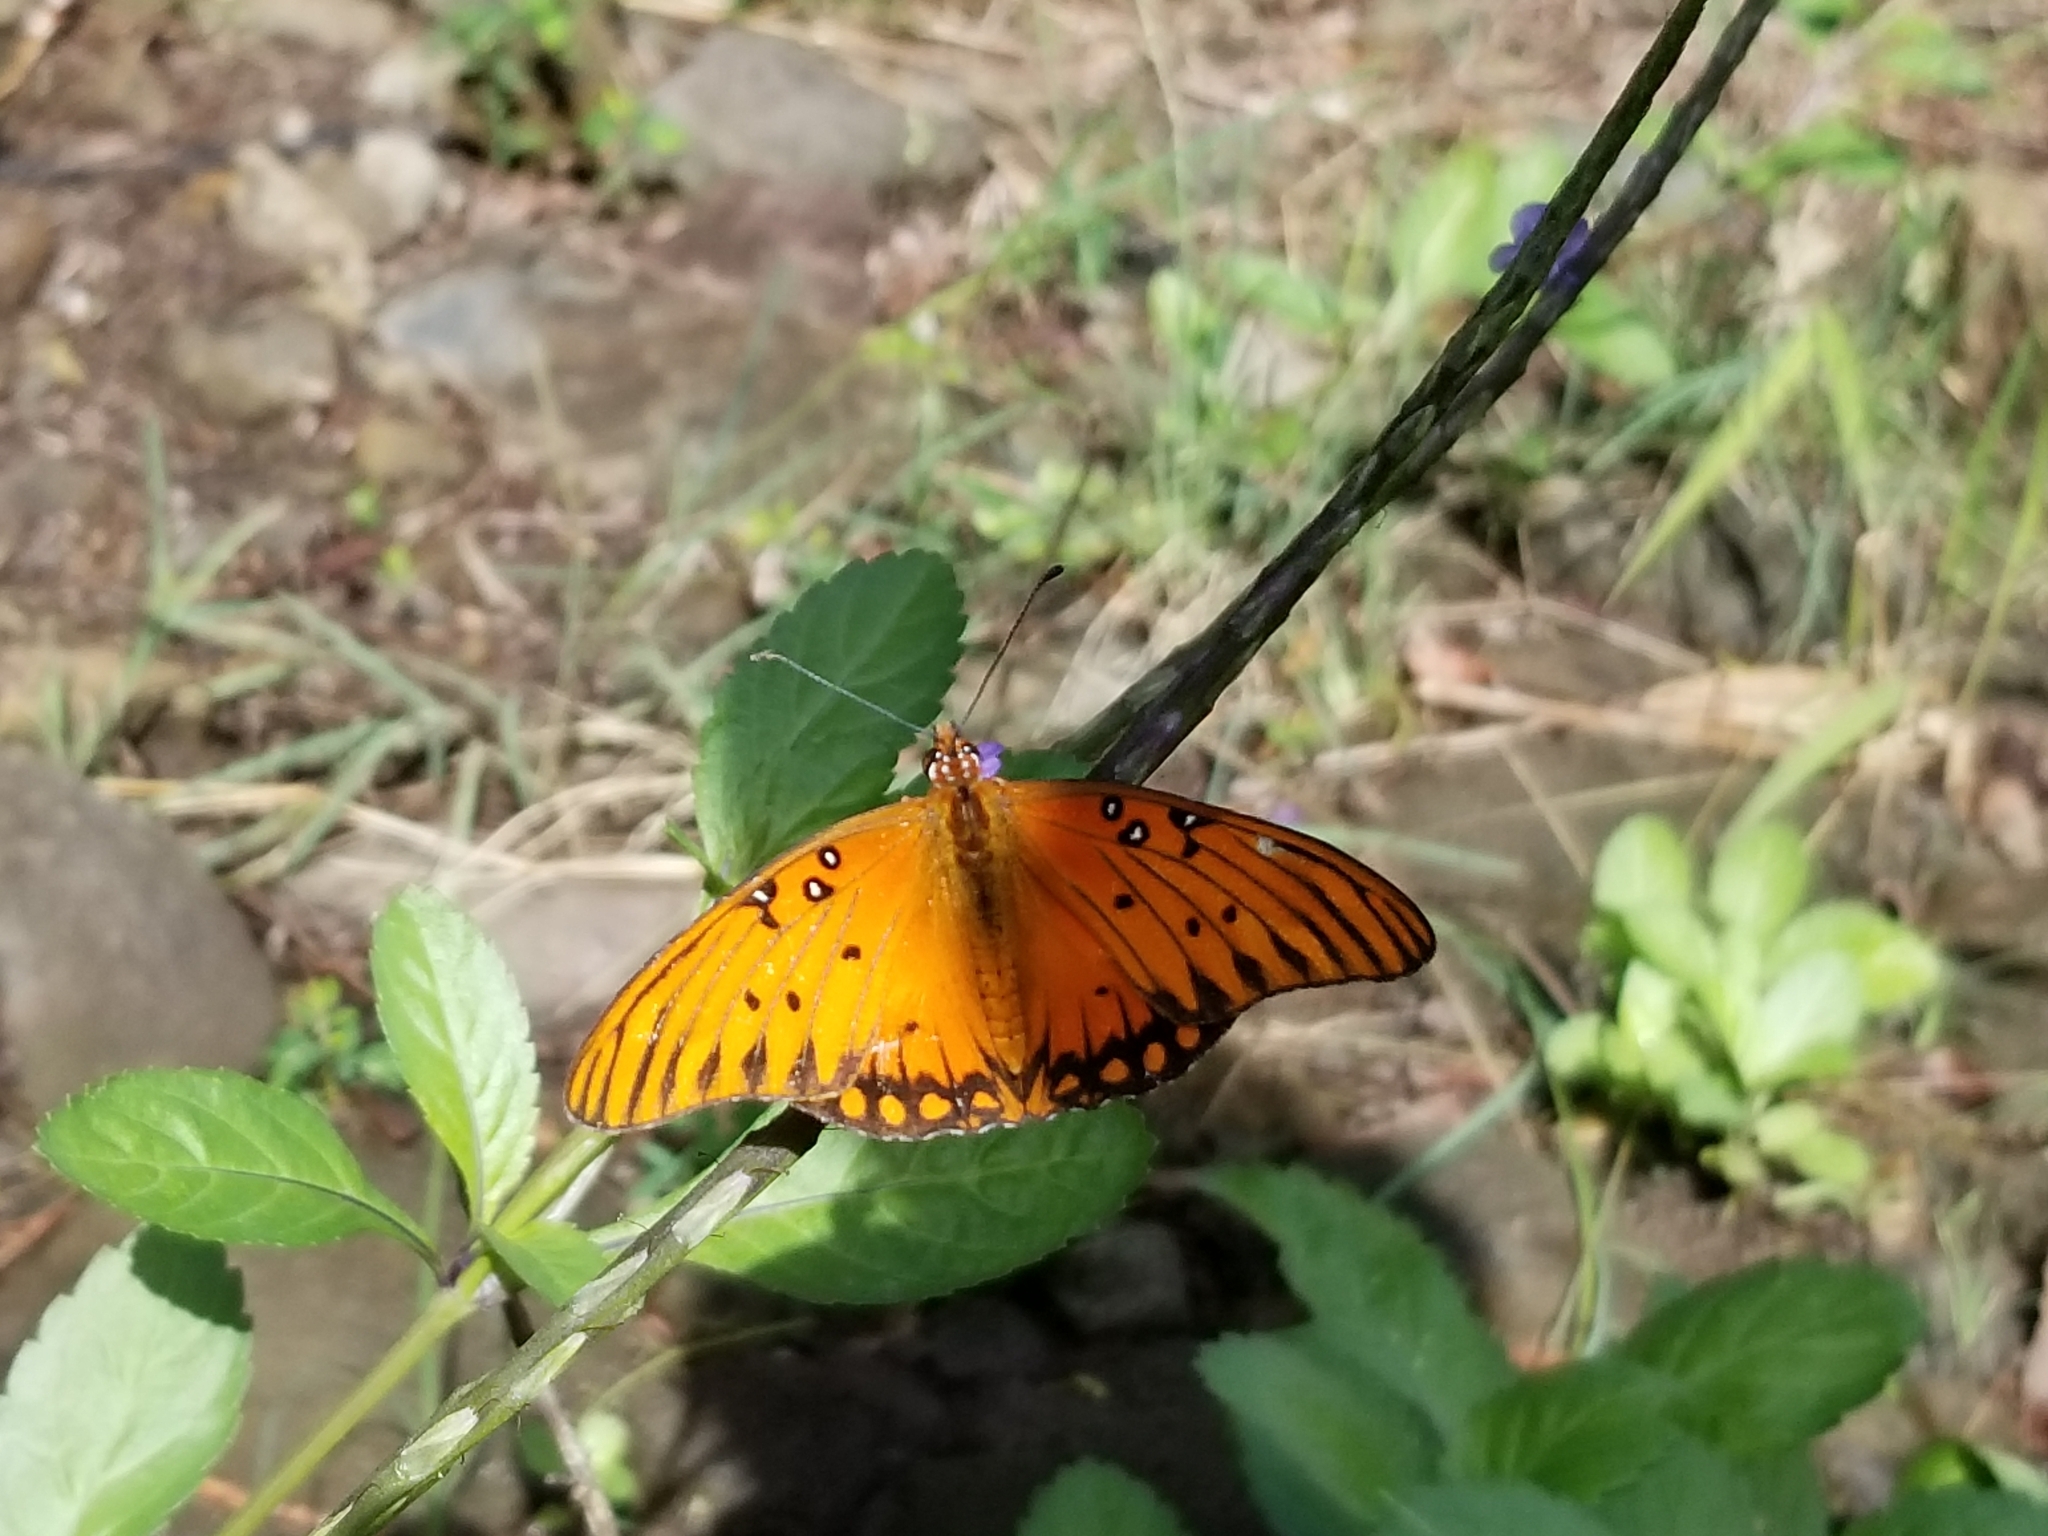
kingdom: Animalia
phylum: Arthropoda
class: Insecta
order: Lepidoptera
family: Nymphalidae
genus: Dione
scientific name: Dione vanillae
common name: Gulf fritillary
